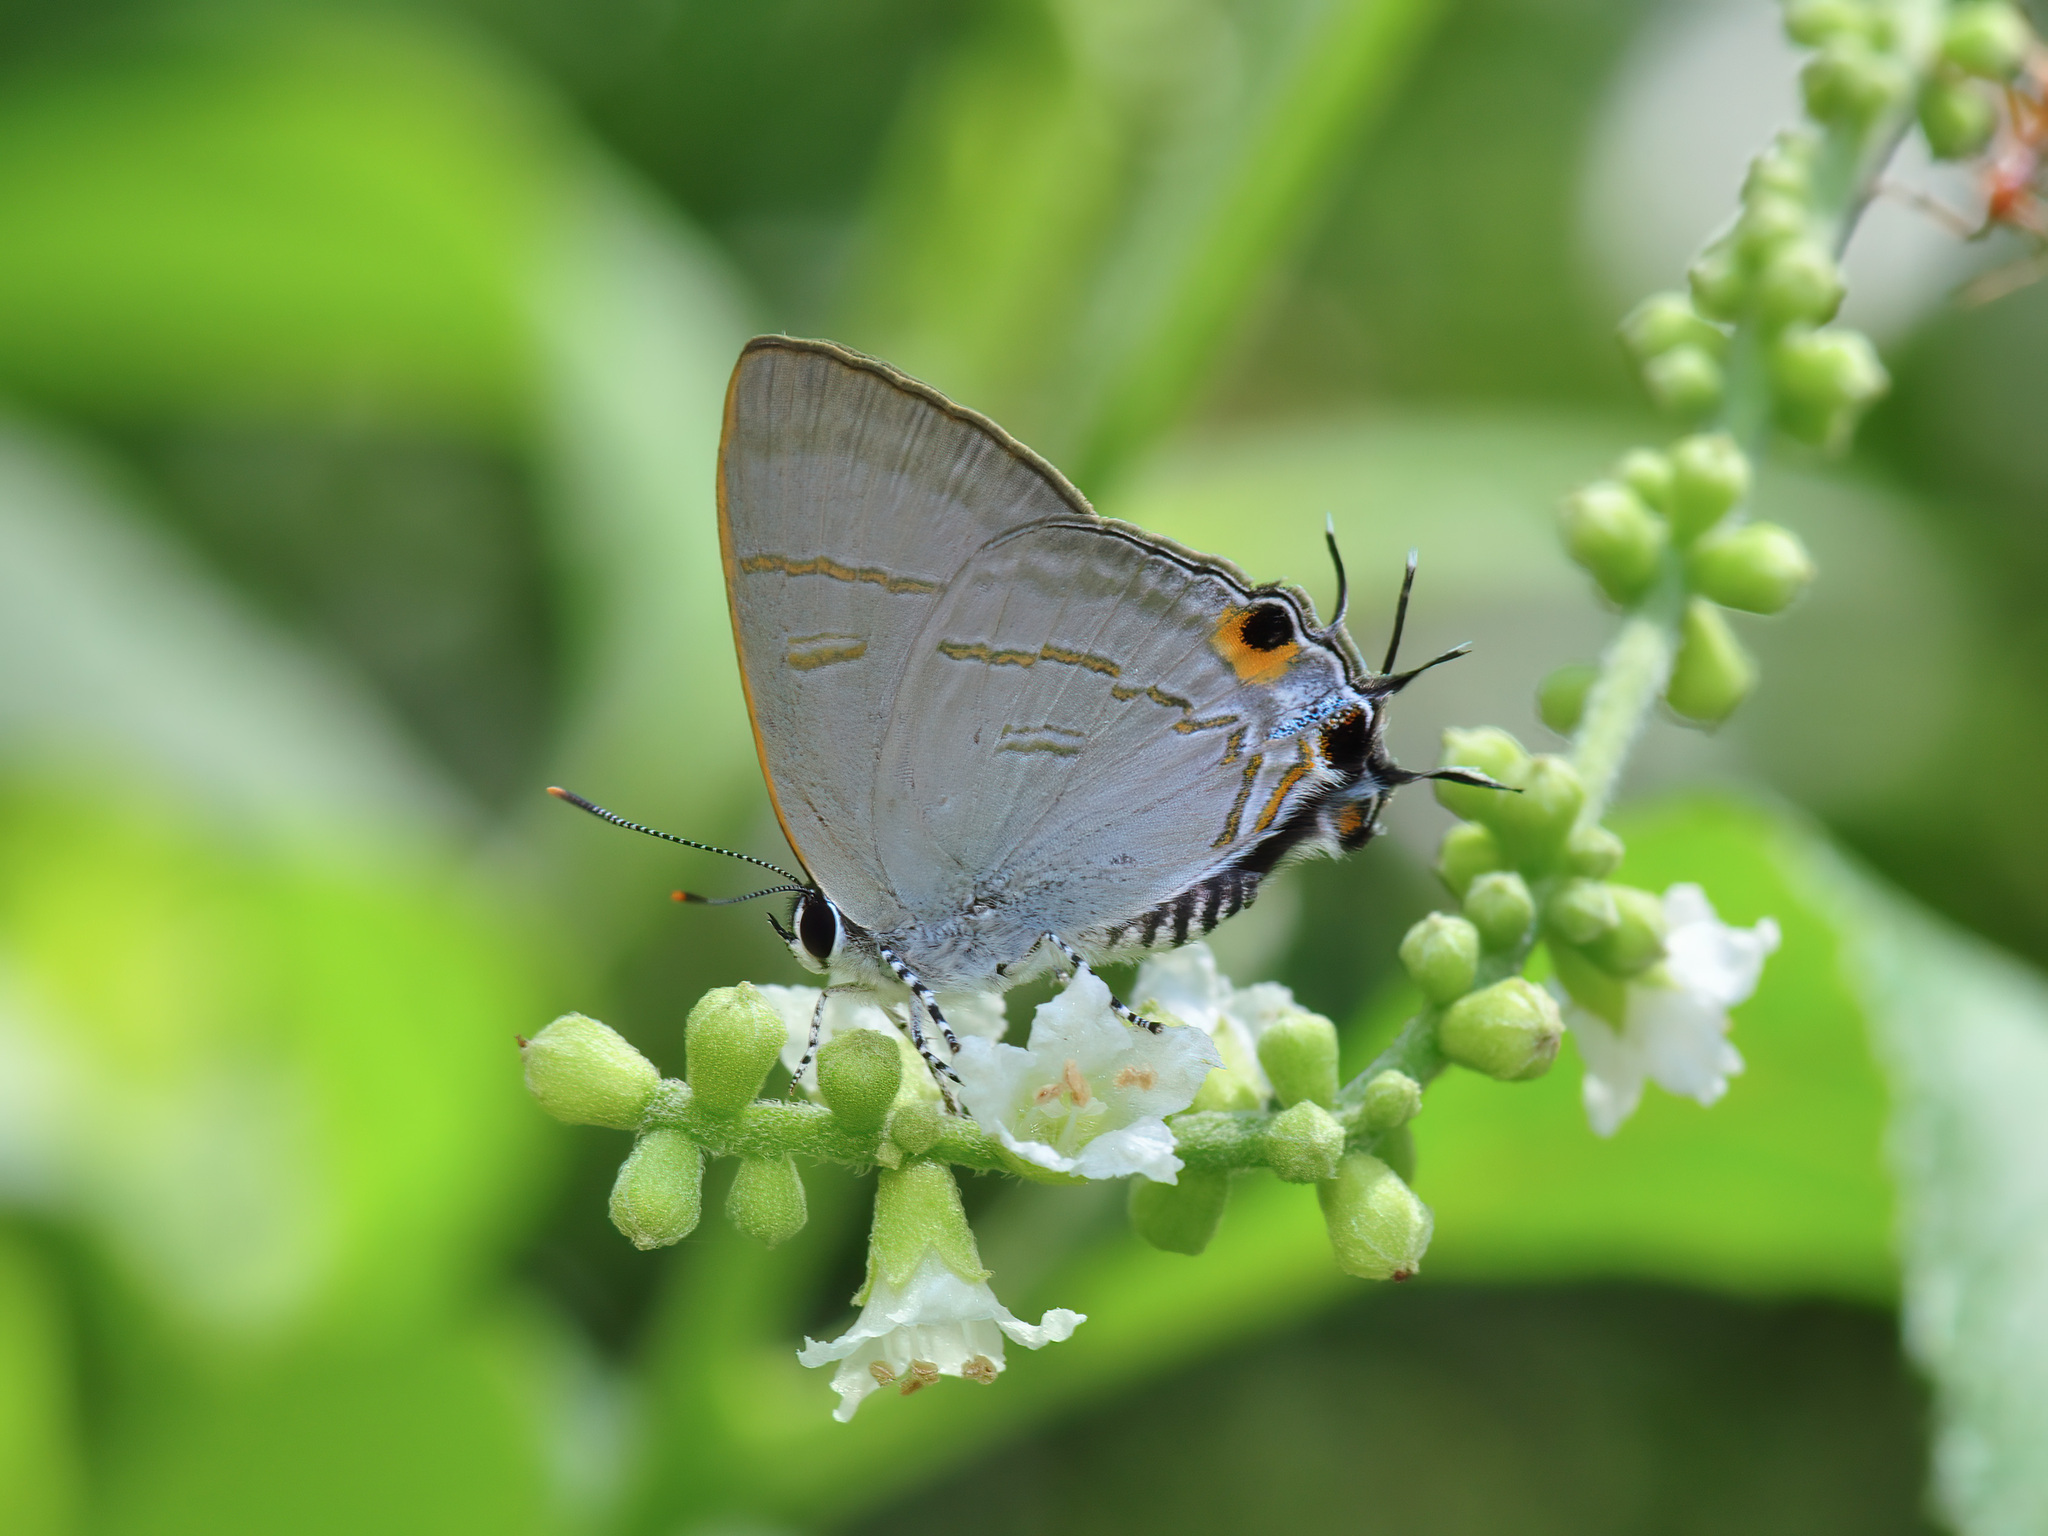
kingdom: Animalia
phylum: Arthropoda
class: Insecta
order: Lepidoptera
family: Lycaenidae
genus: Hypolycaena
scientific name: Hypolycaena erylus
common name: Common tit
